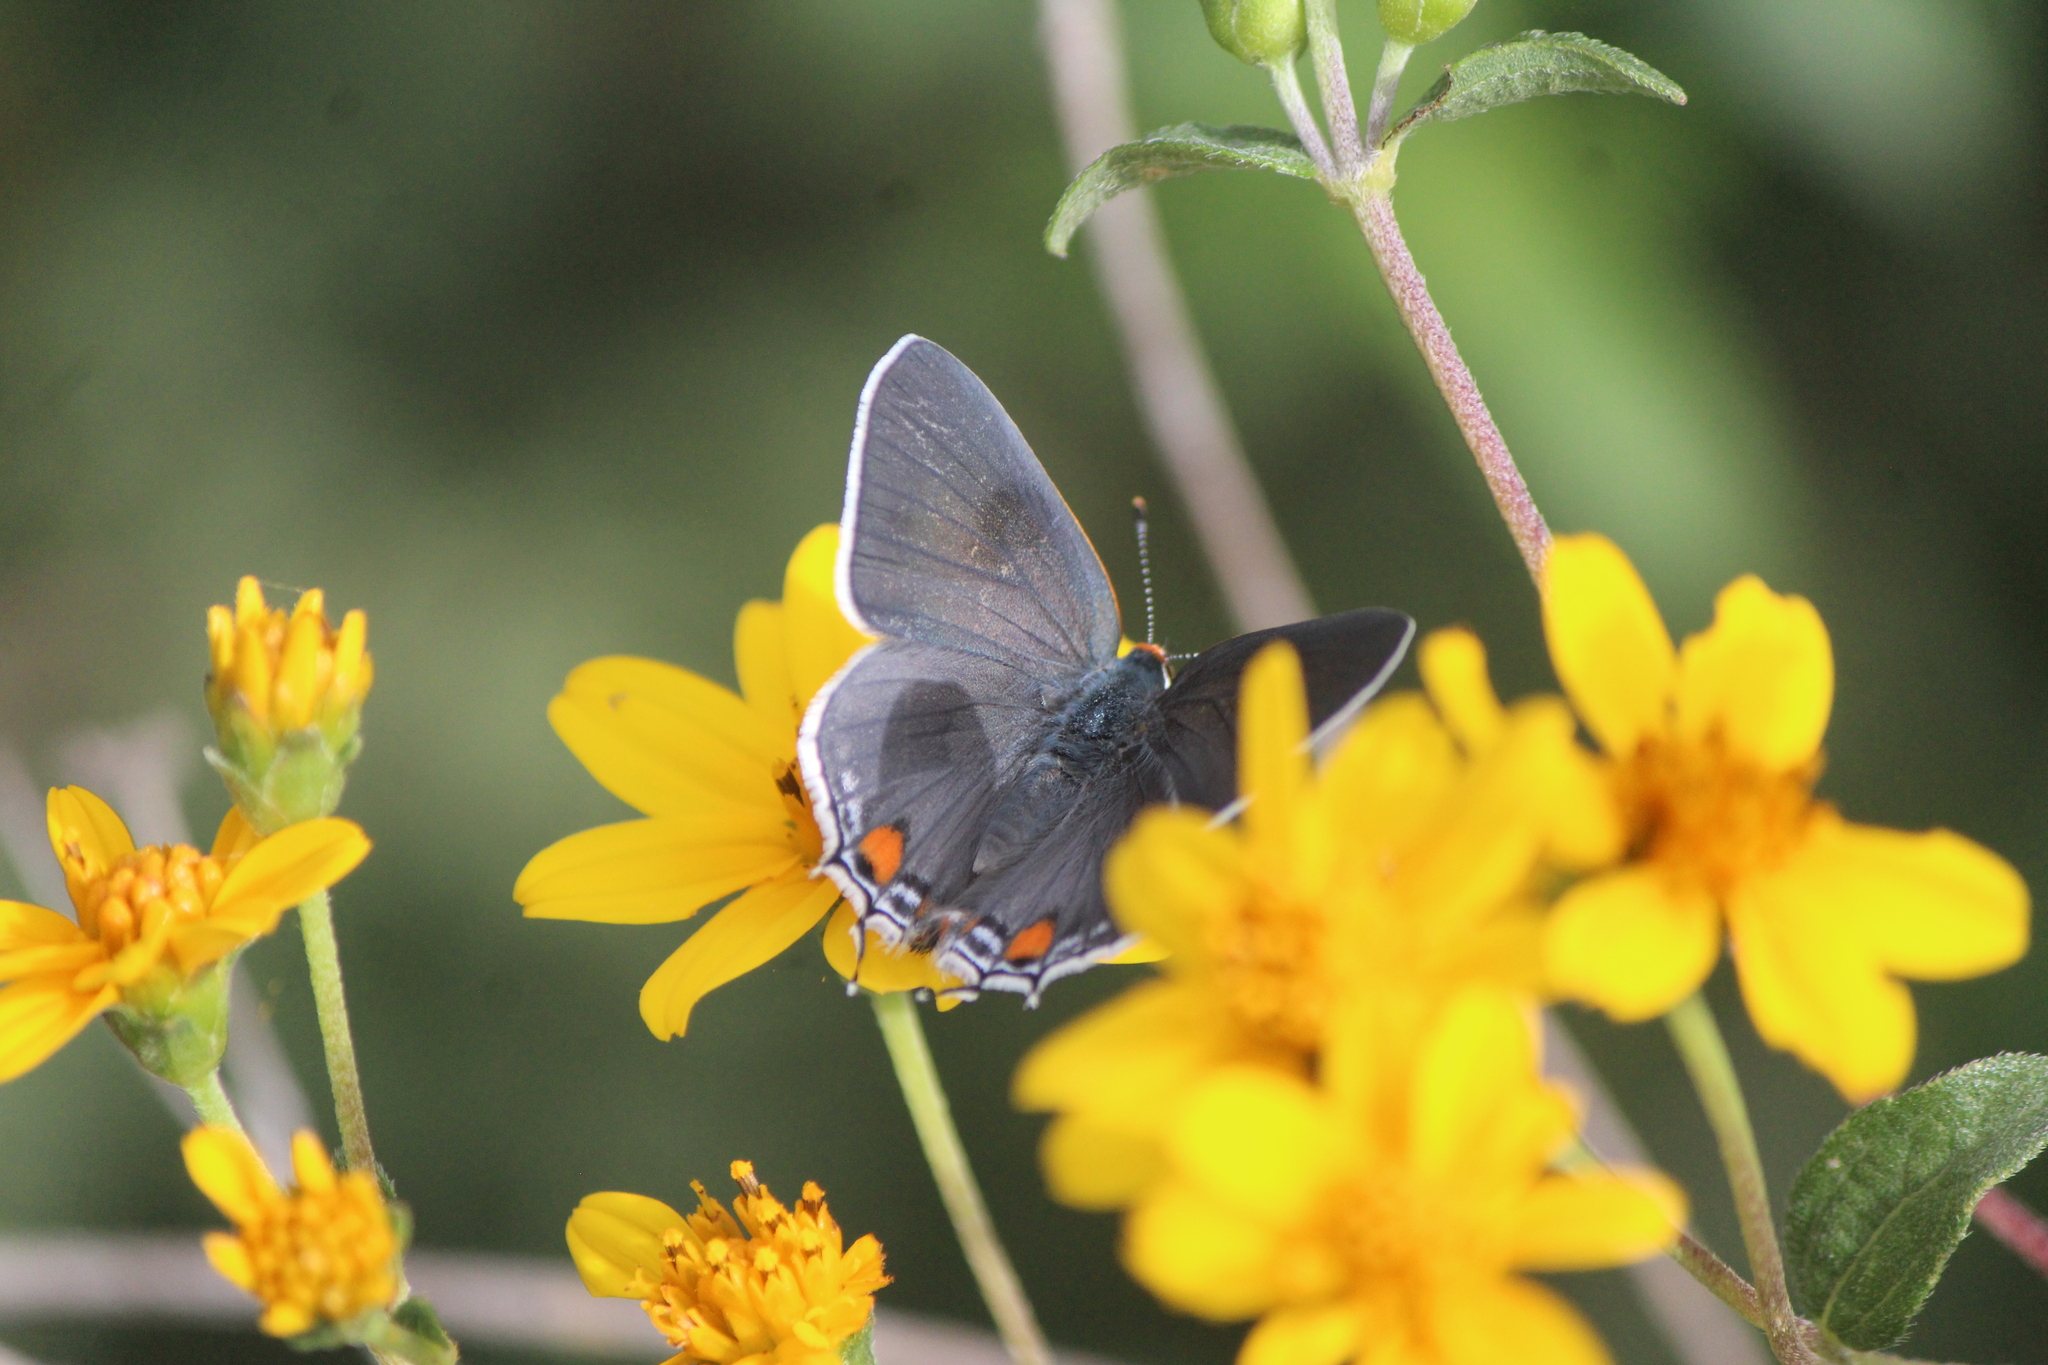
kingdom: Animalia
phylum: Arthropoda
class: Insecta
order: Lepidoptera
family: Lycaenidae
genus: Strymon
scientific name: Strymon melinus
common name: Gray hairstreak
